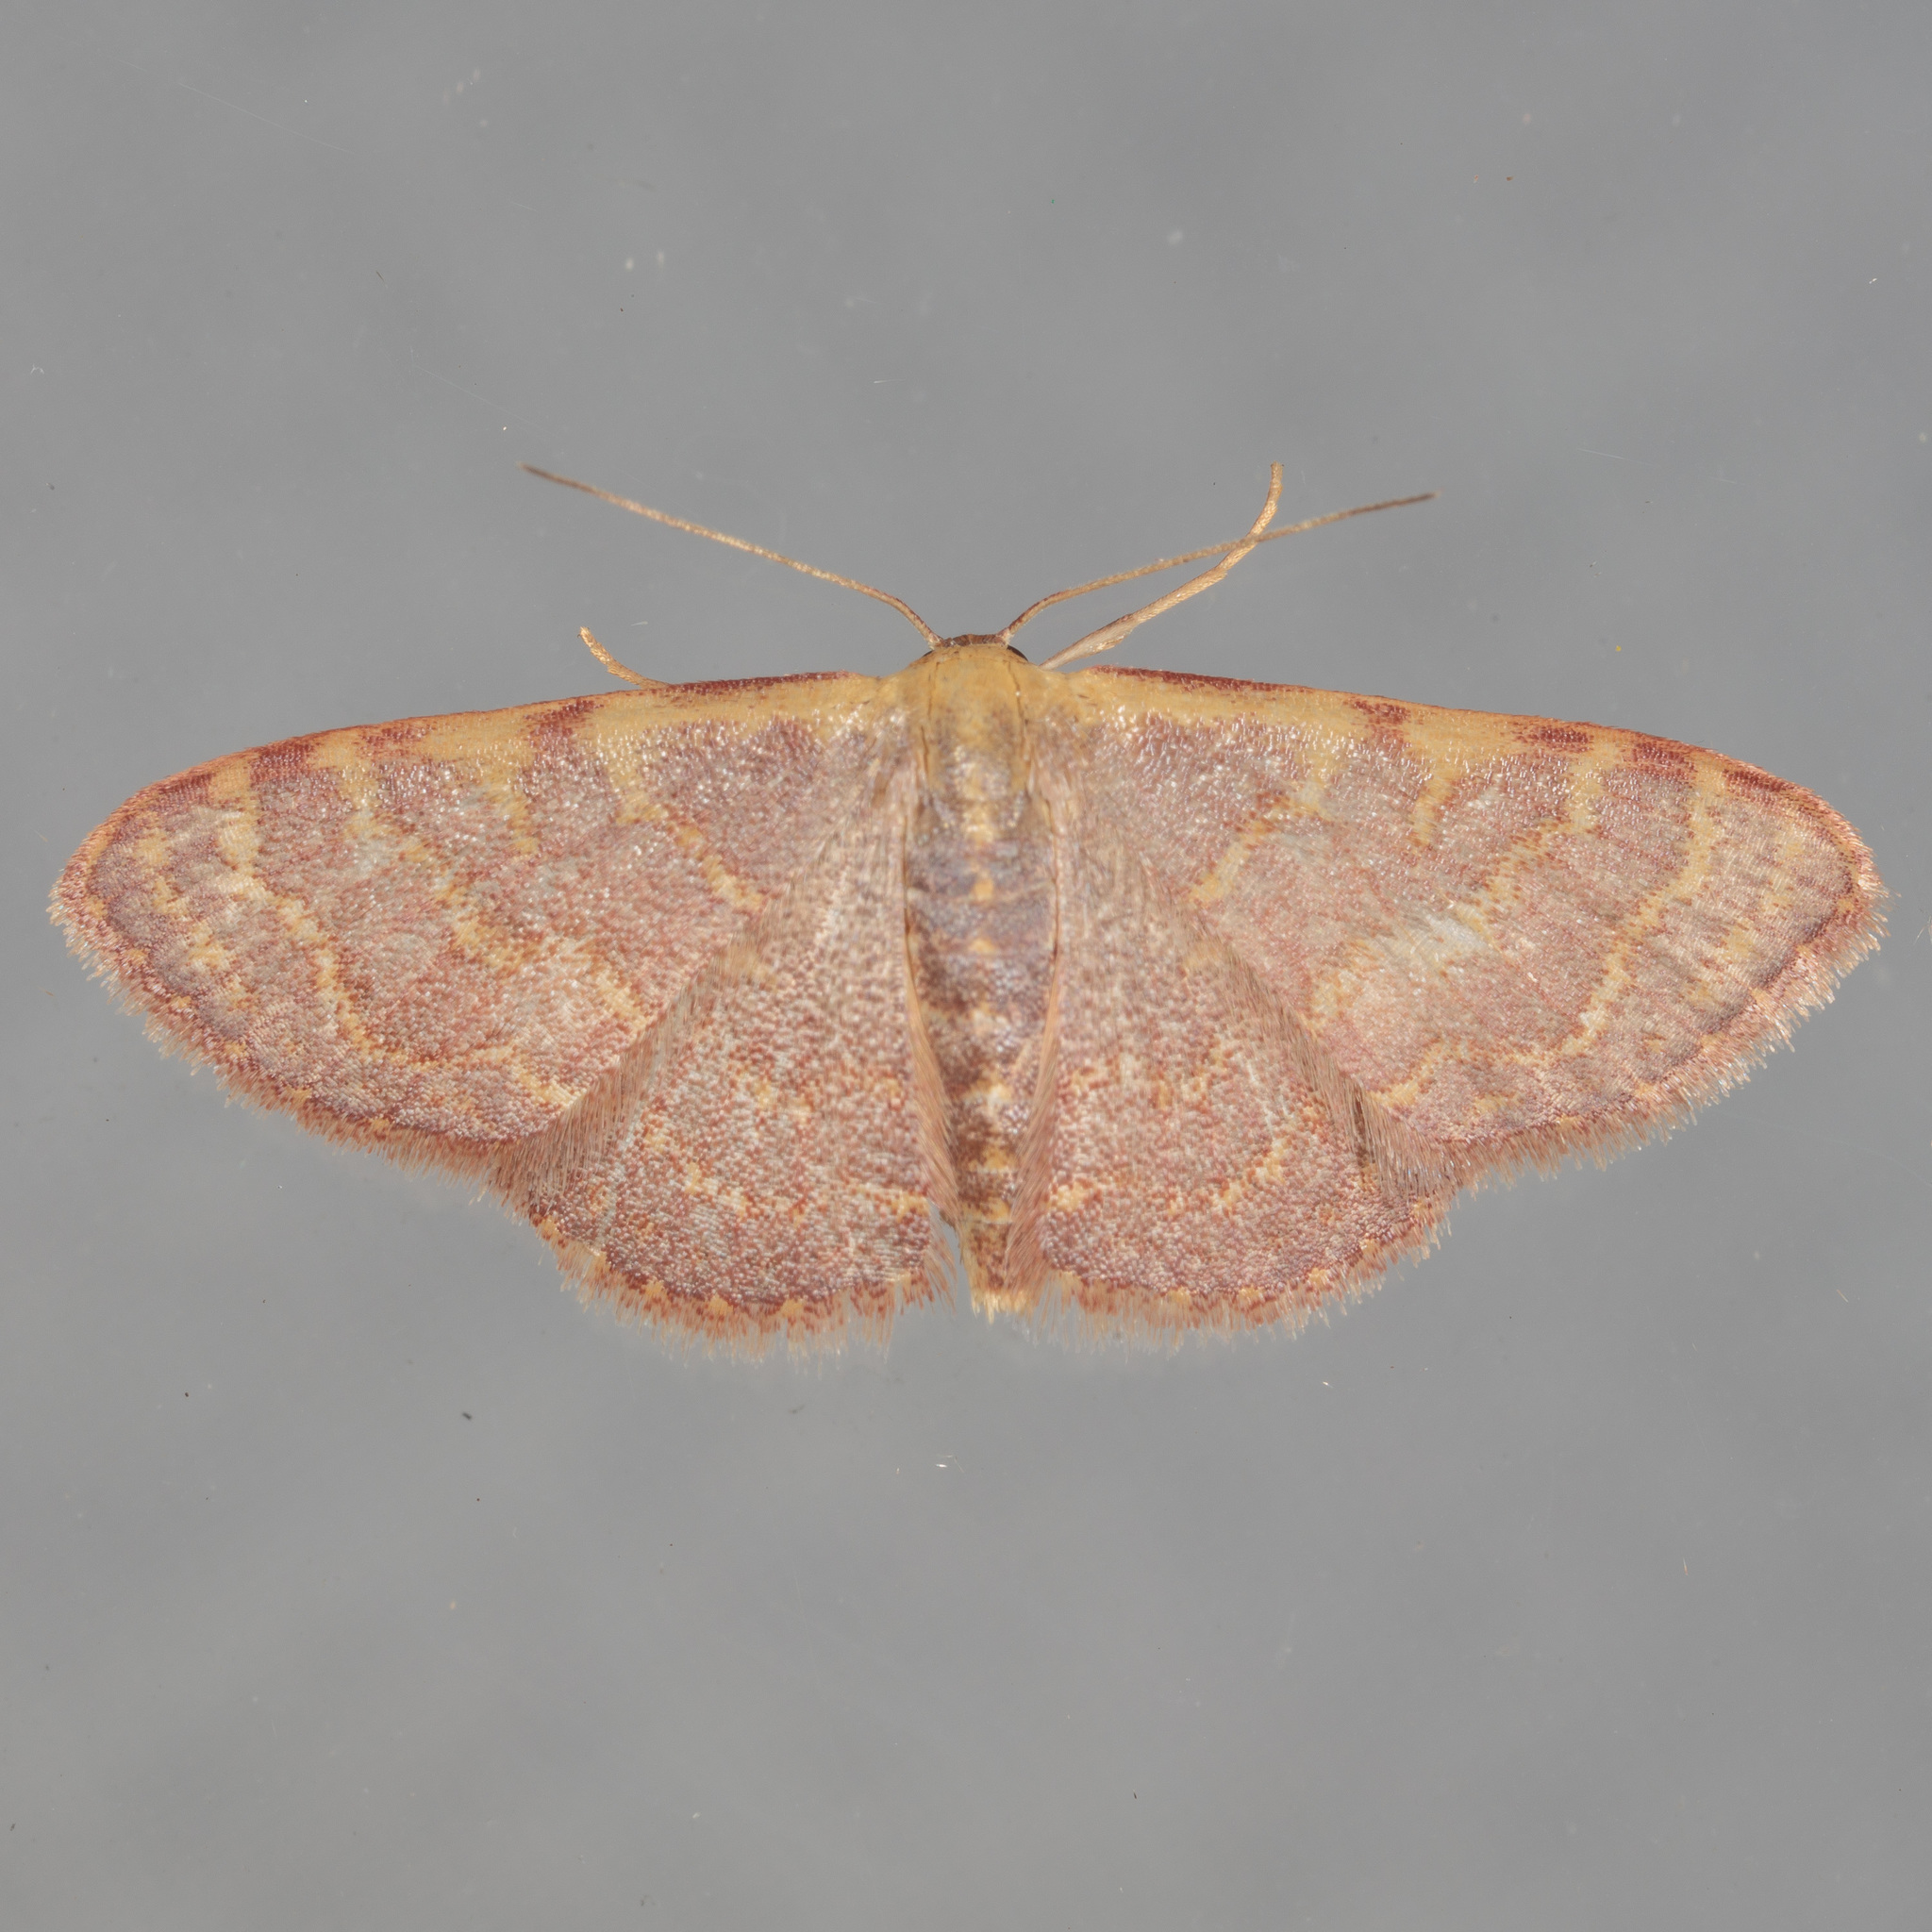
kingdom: Animalia
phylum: Arthropoda
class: Insecta
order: Lepidoptera
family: Geometridae
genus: Leptostales
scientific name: Leptostales pannaria
